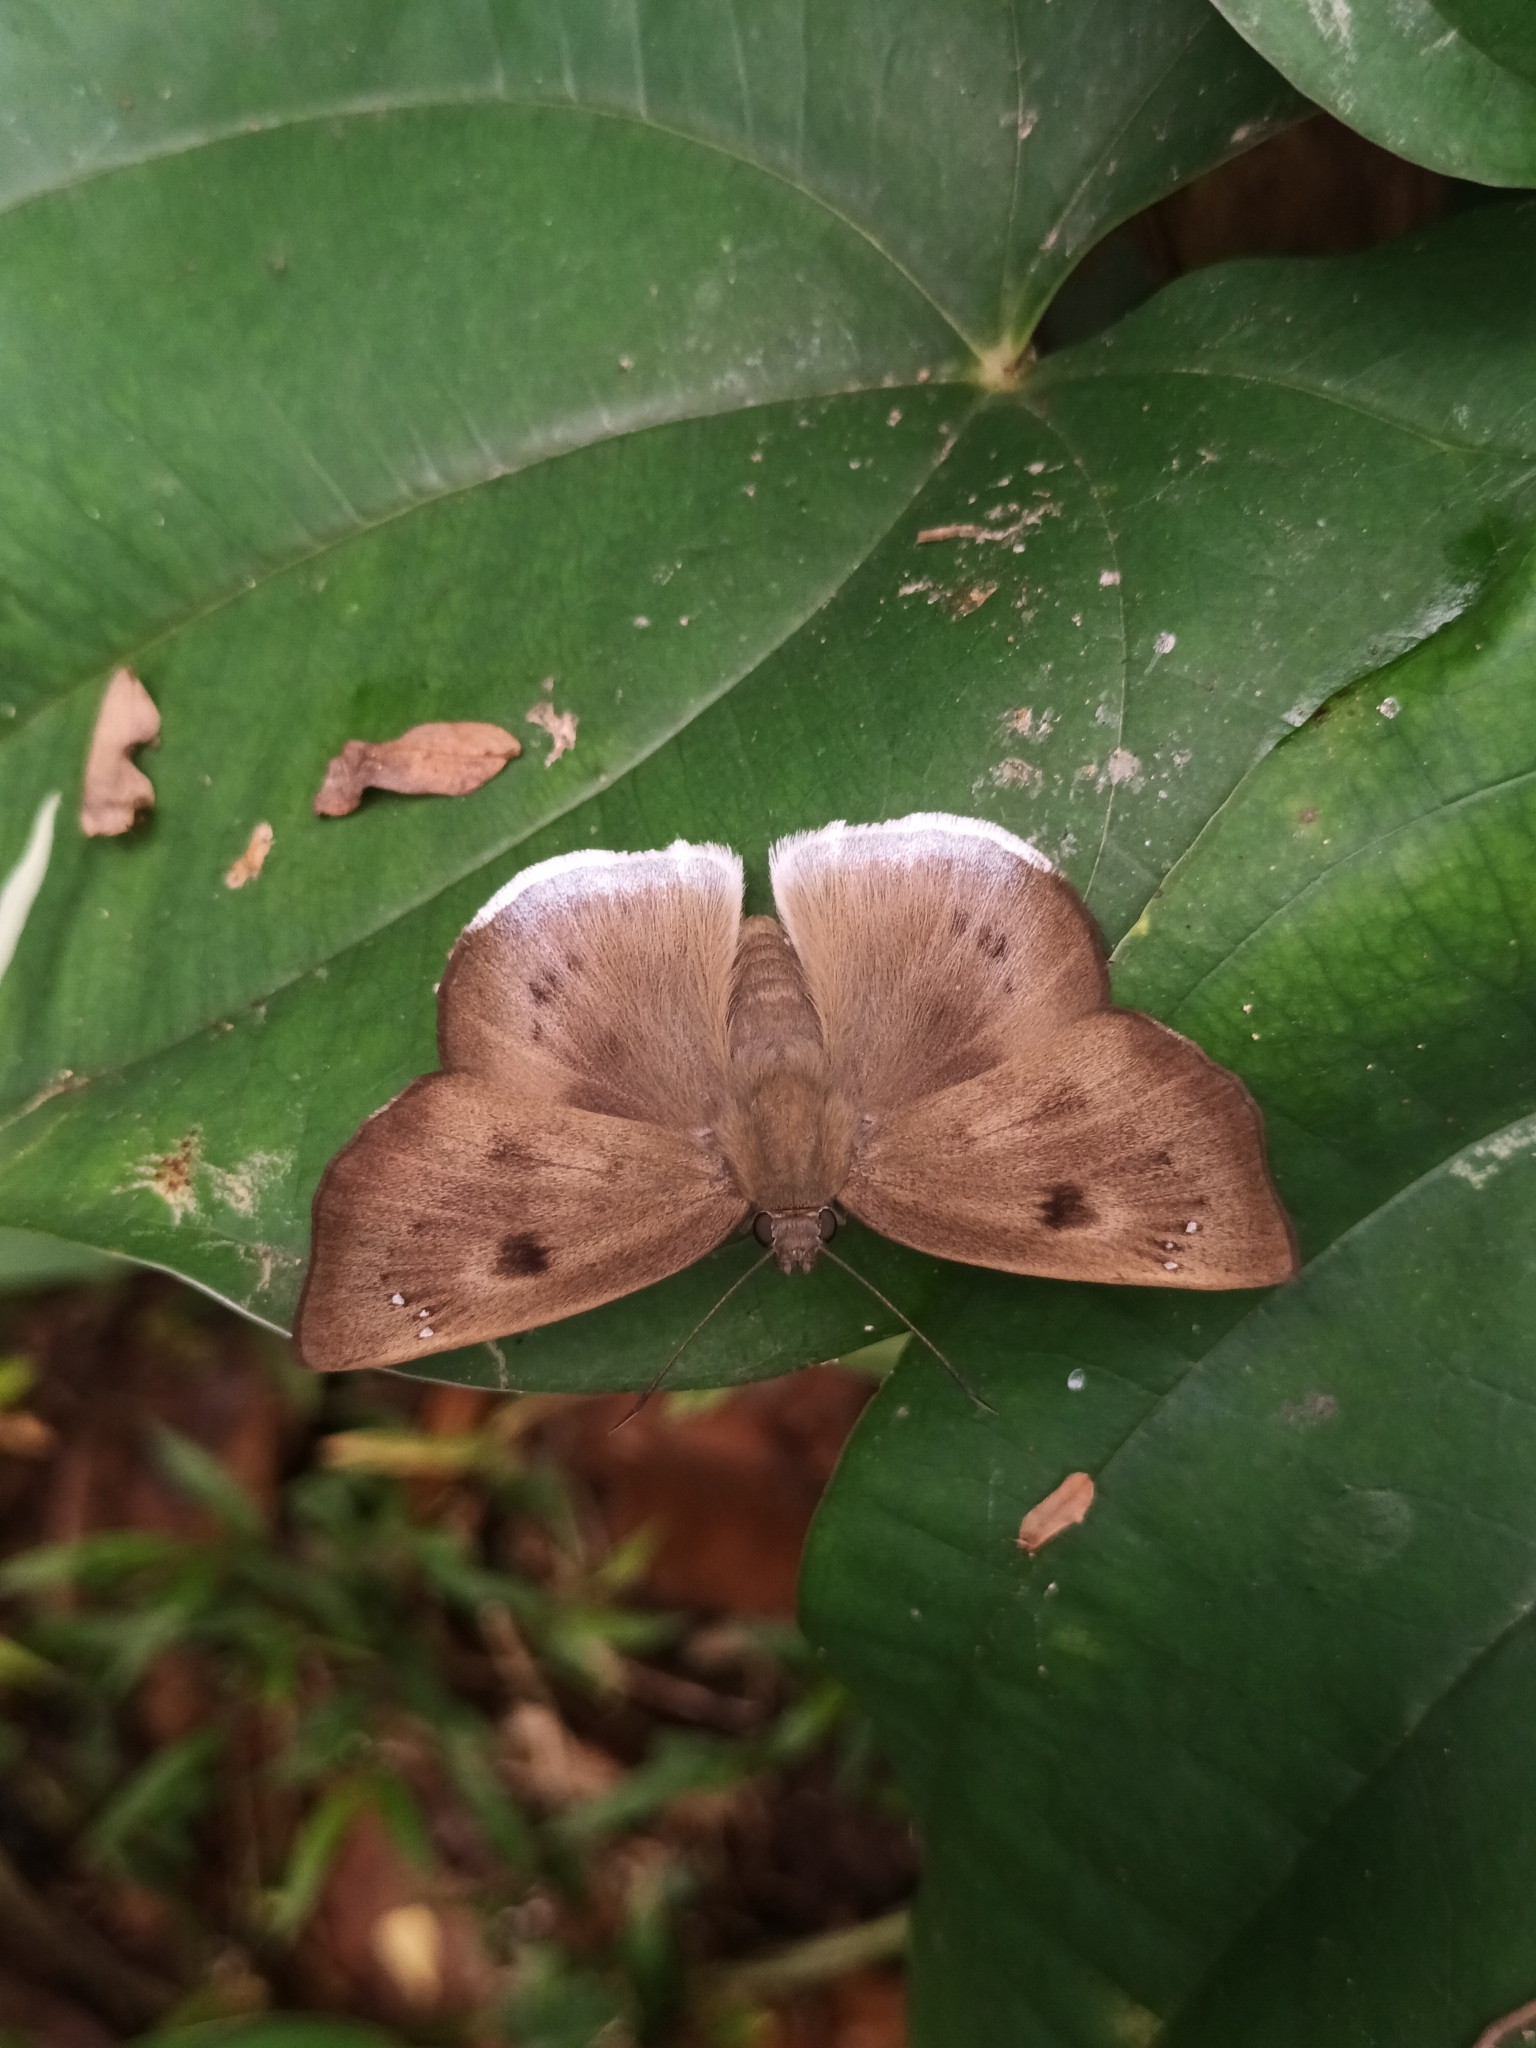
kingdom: Animalia
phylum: Arthropoda
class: Insecta
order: Lepidoptera
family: Hesperiidae
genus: Tagiades
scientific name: Tagiades gana
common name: Suffused snow flat
